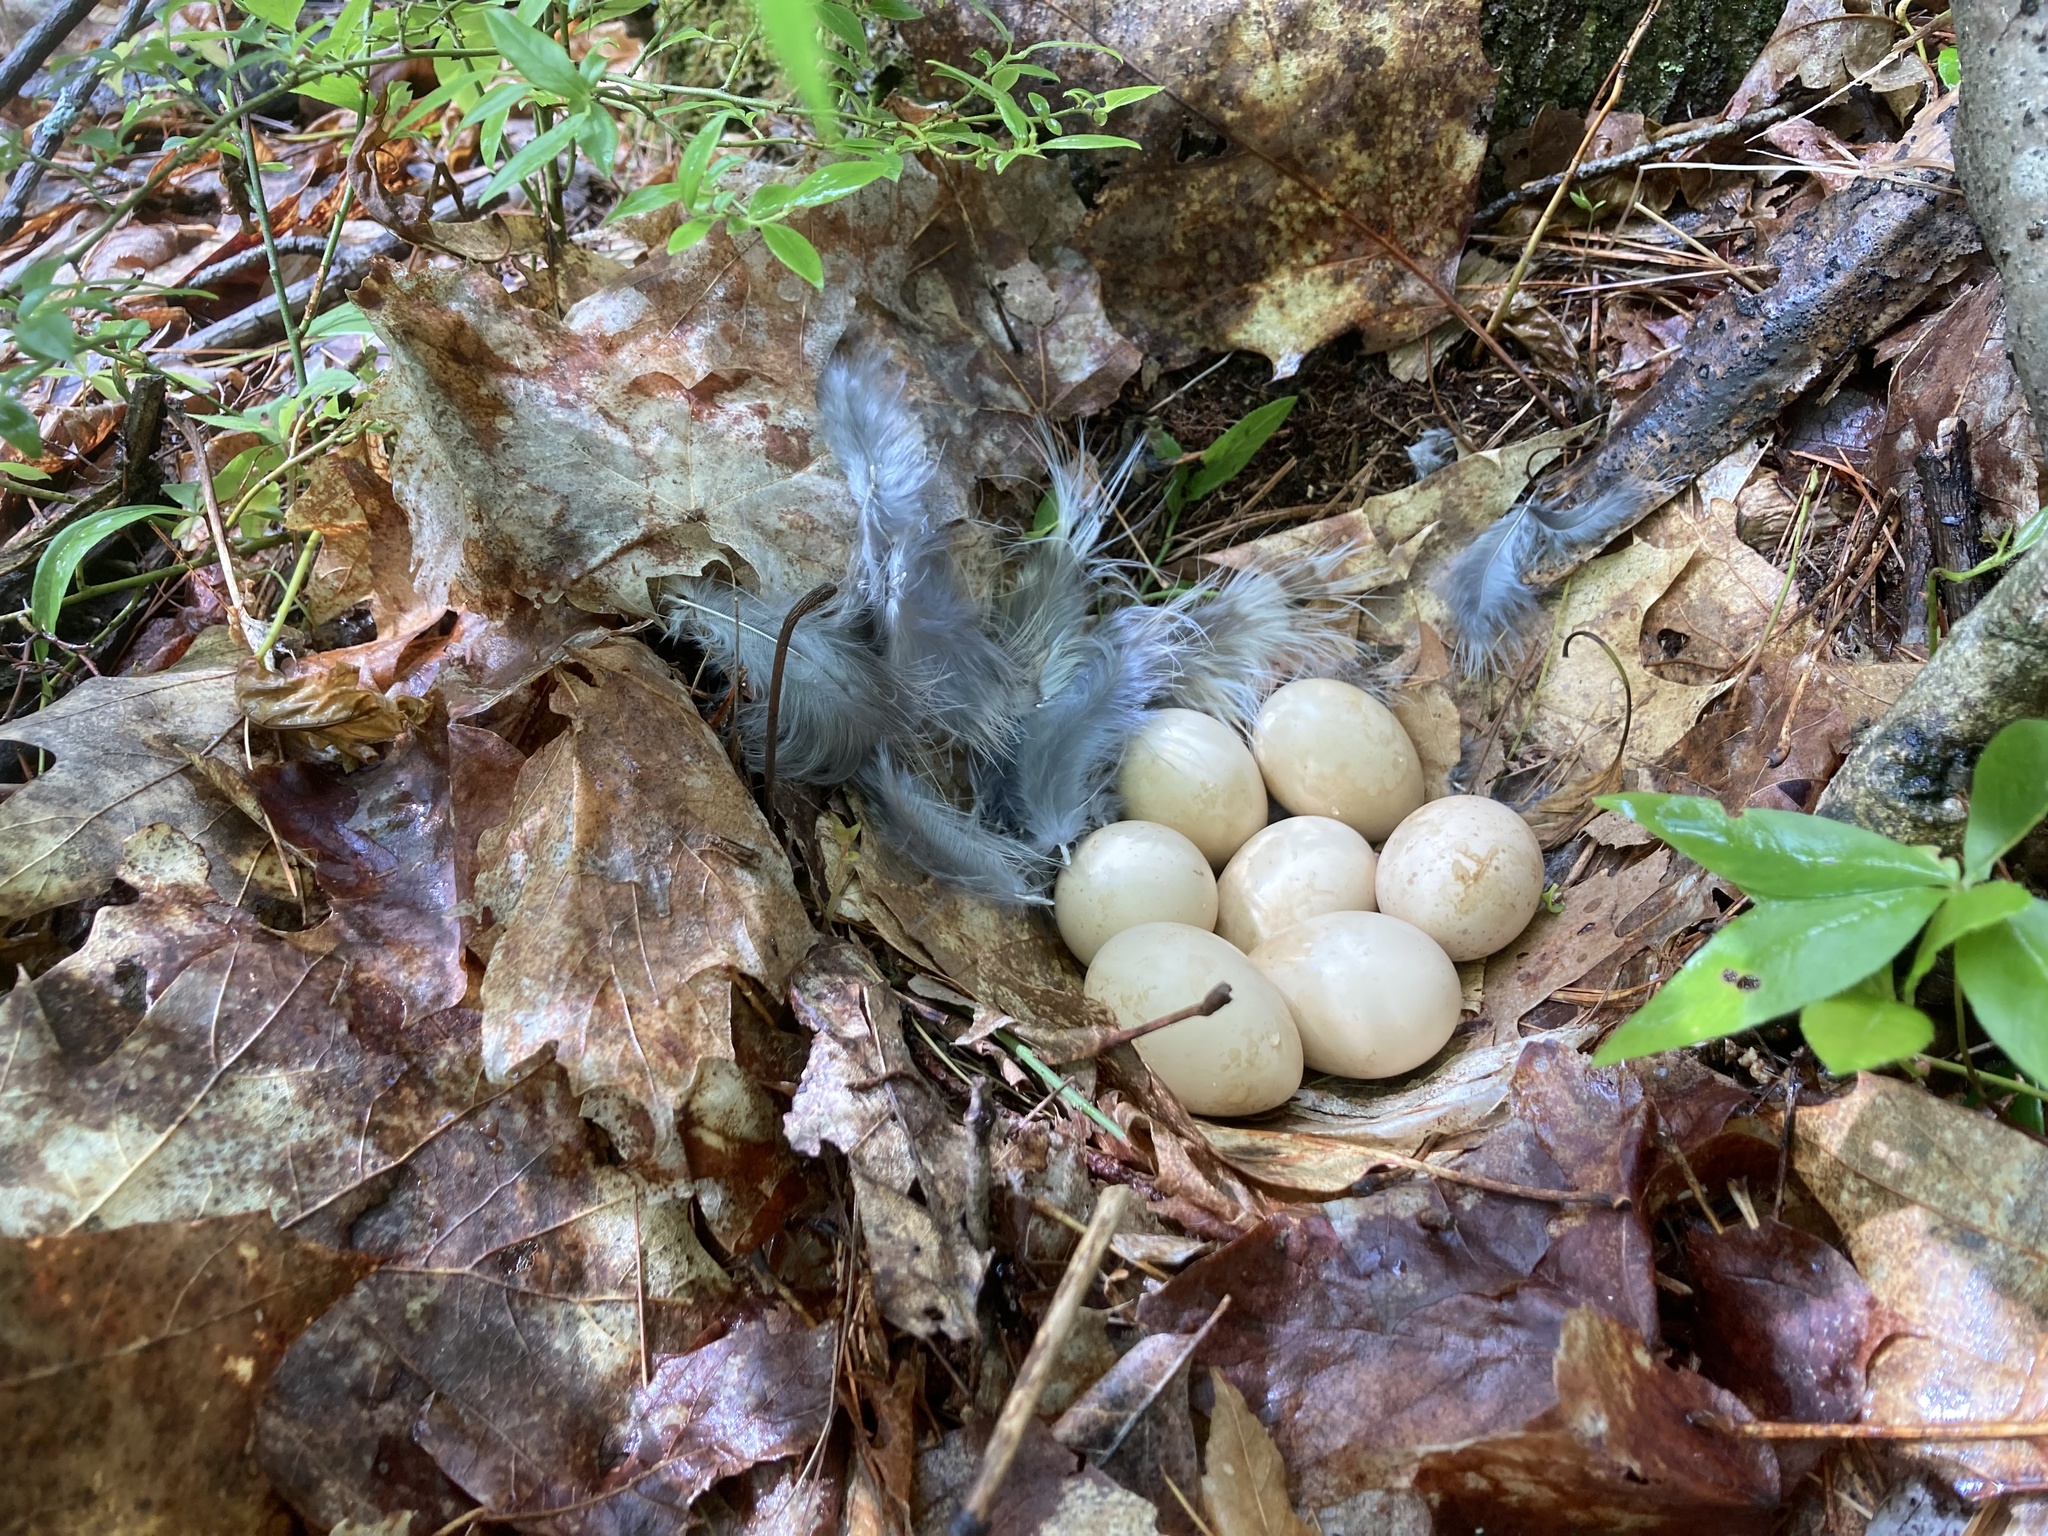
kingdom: Animalia
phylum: Chordata
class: Aves
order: Galliformes
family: Phasianidae
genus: Bonasa
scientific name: Bonasa umbellus
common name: Ruffed grouse
